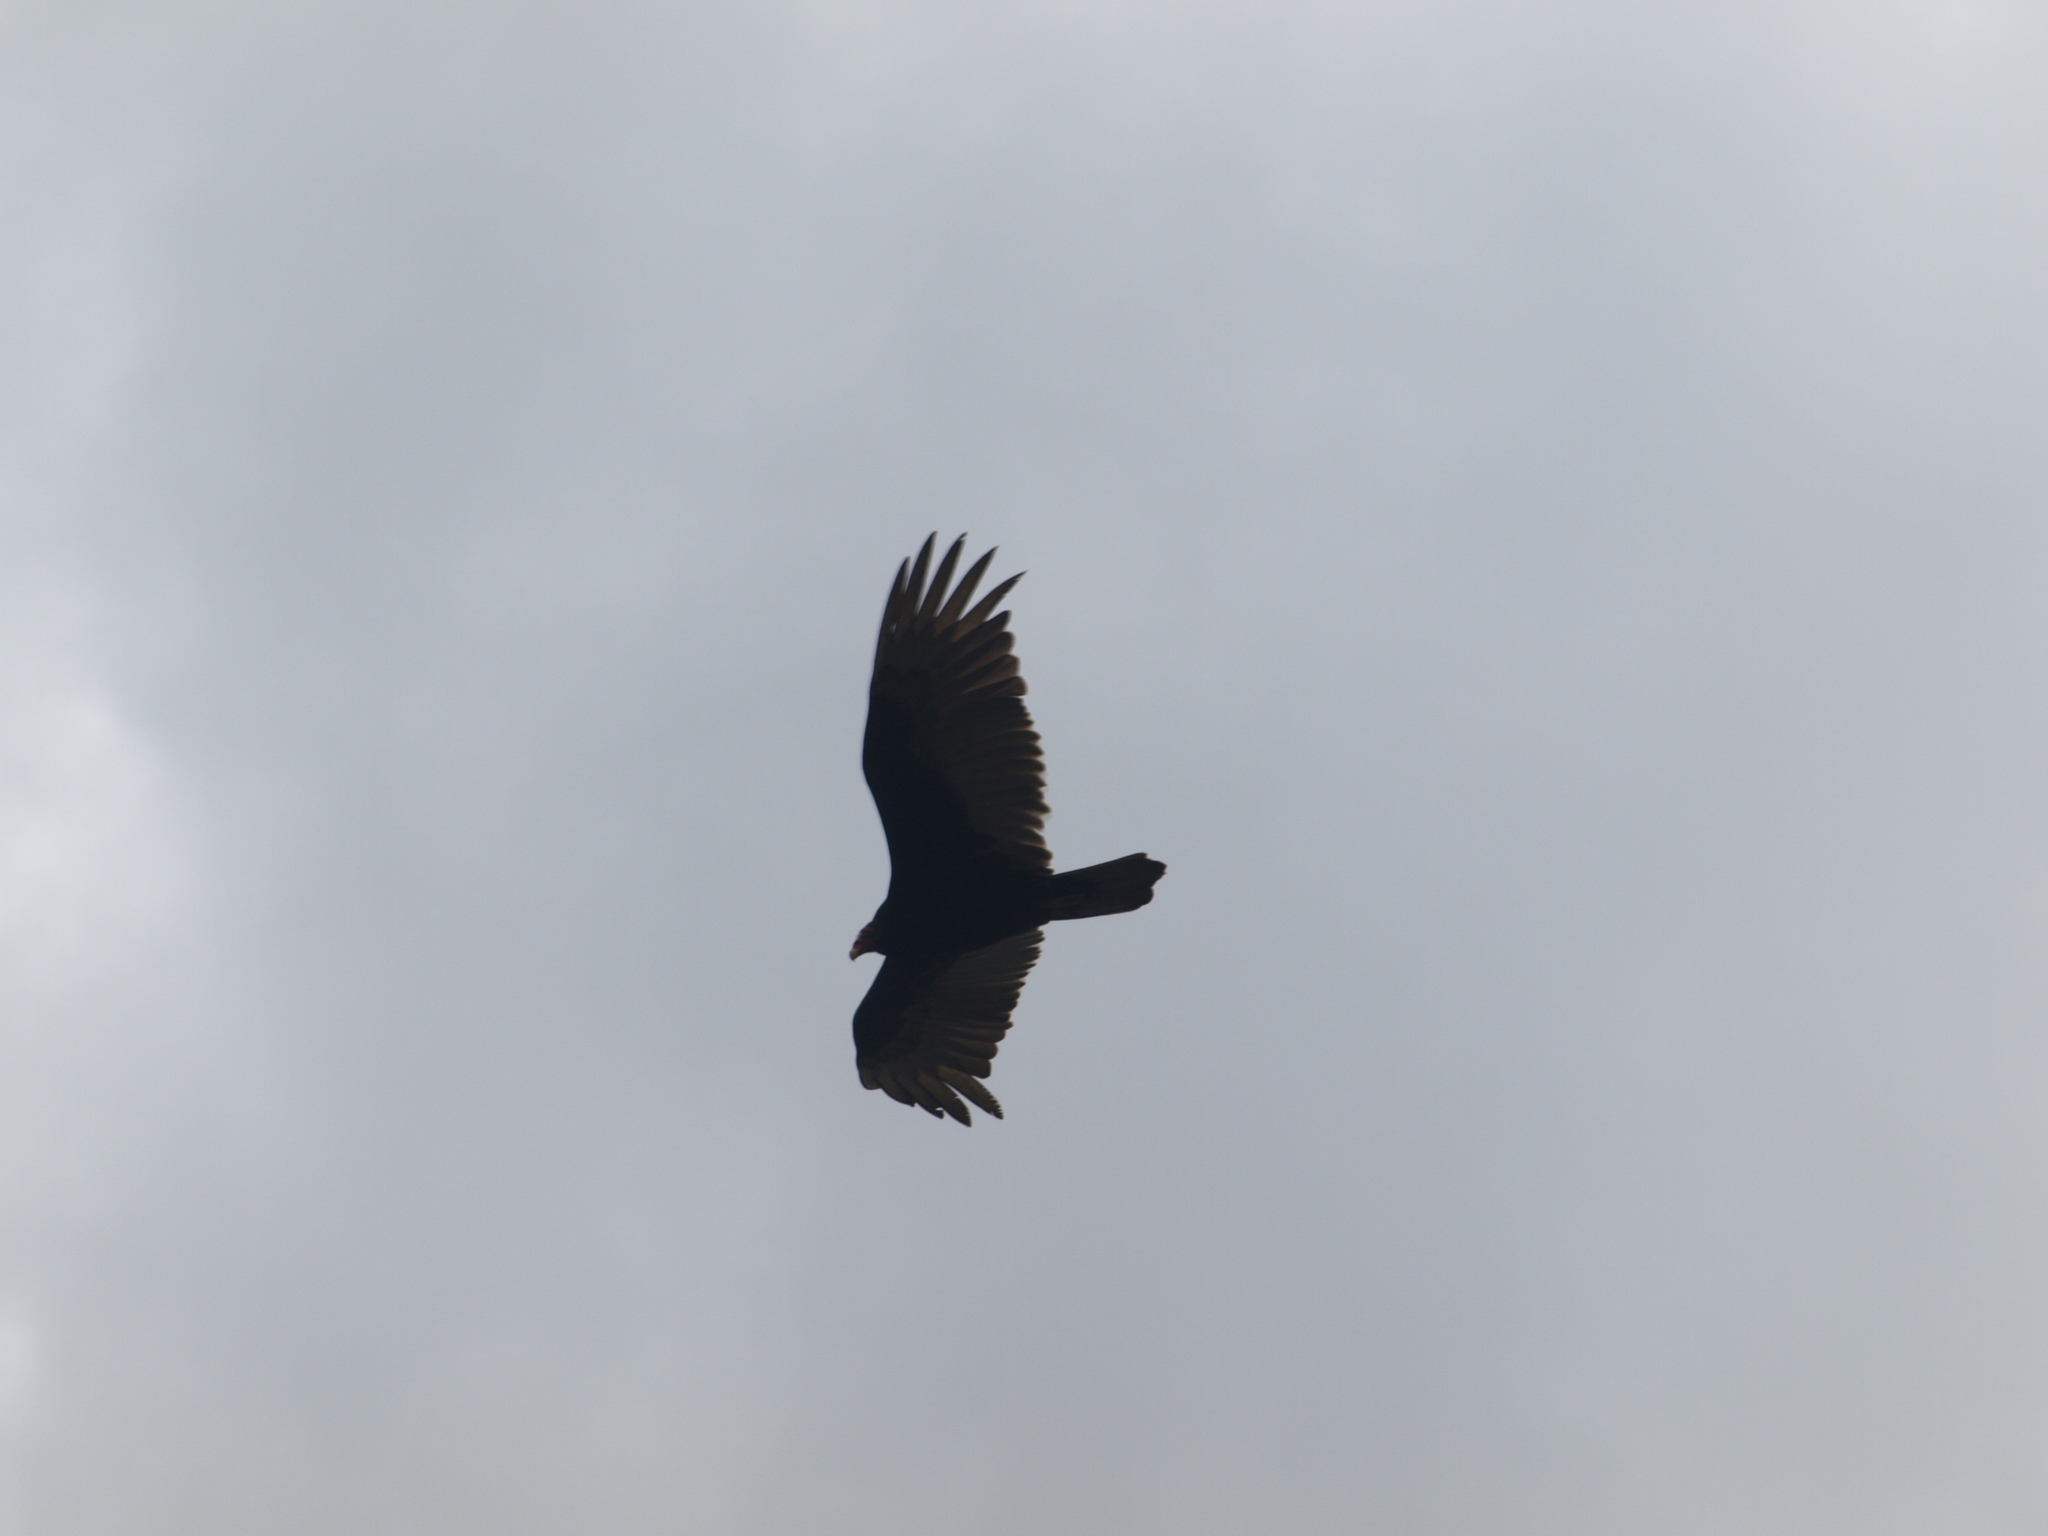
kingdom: Animalia
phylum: Chordata
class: Aves
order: Accipitriformes
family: Cathartidae
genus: Cathartes
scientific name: Cathartes aura
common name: Turkey vulture
